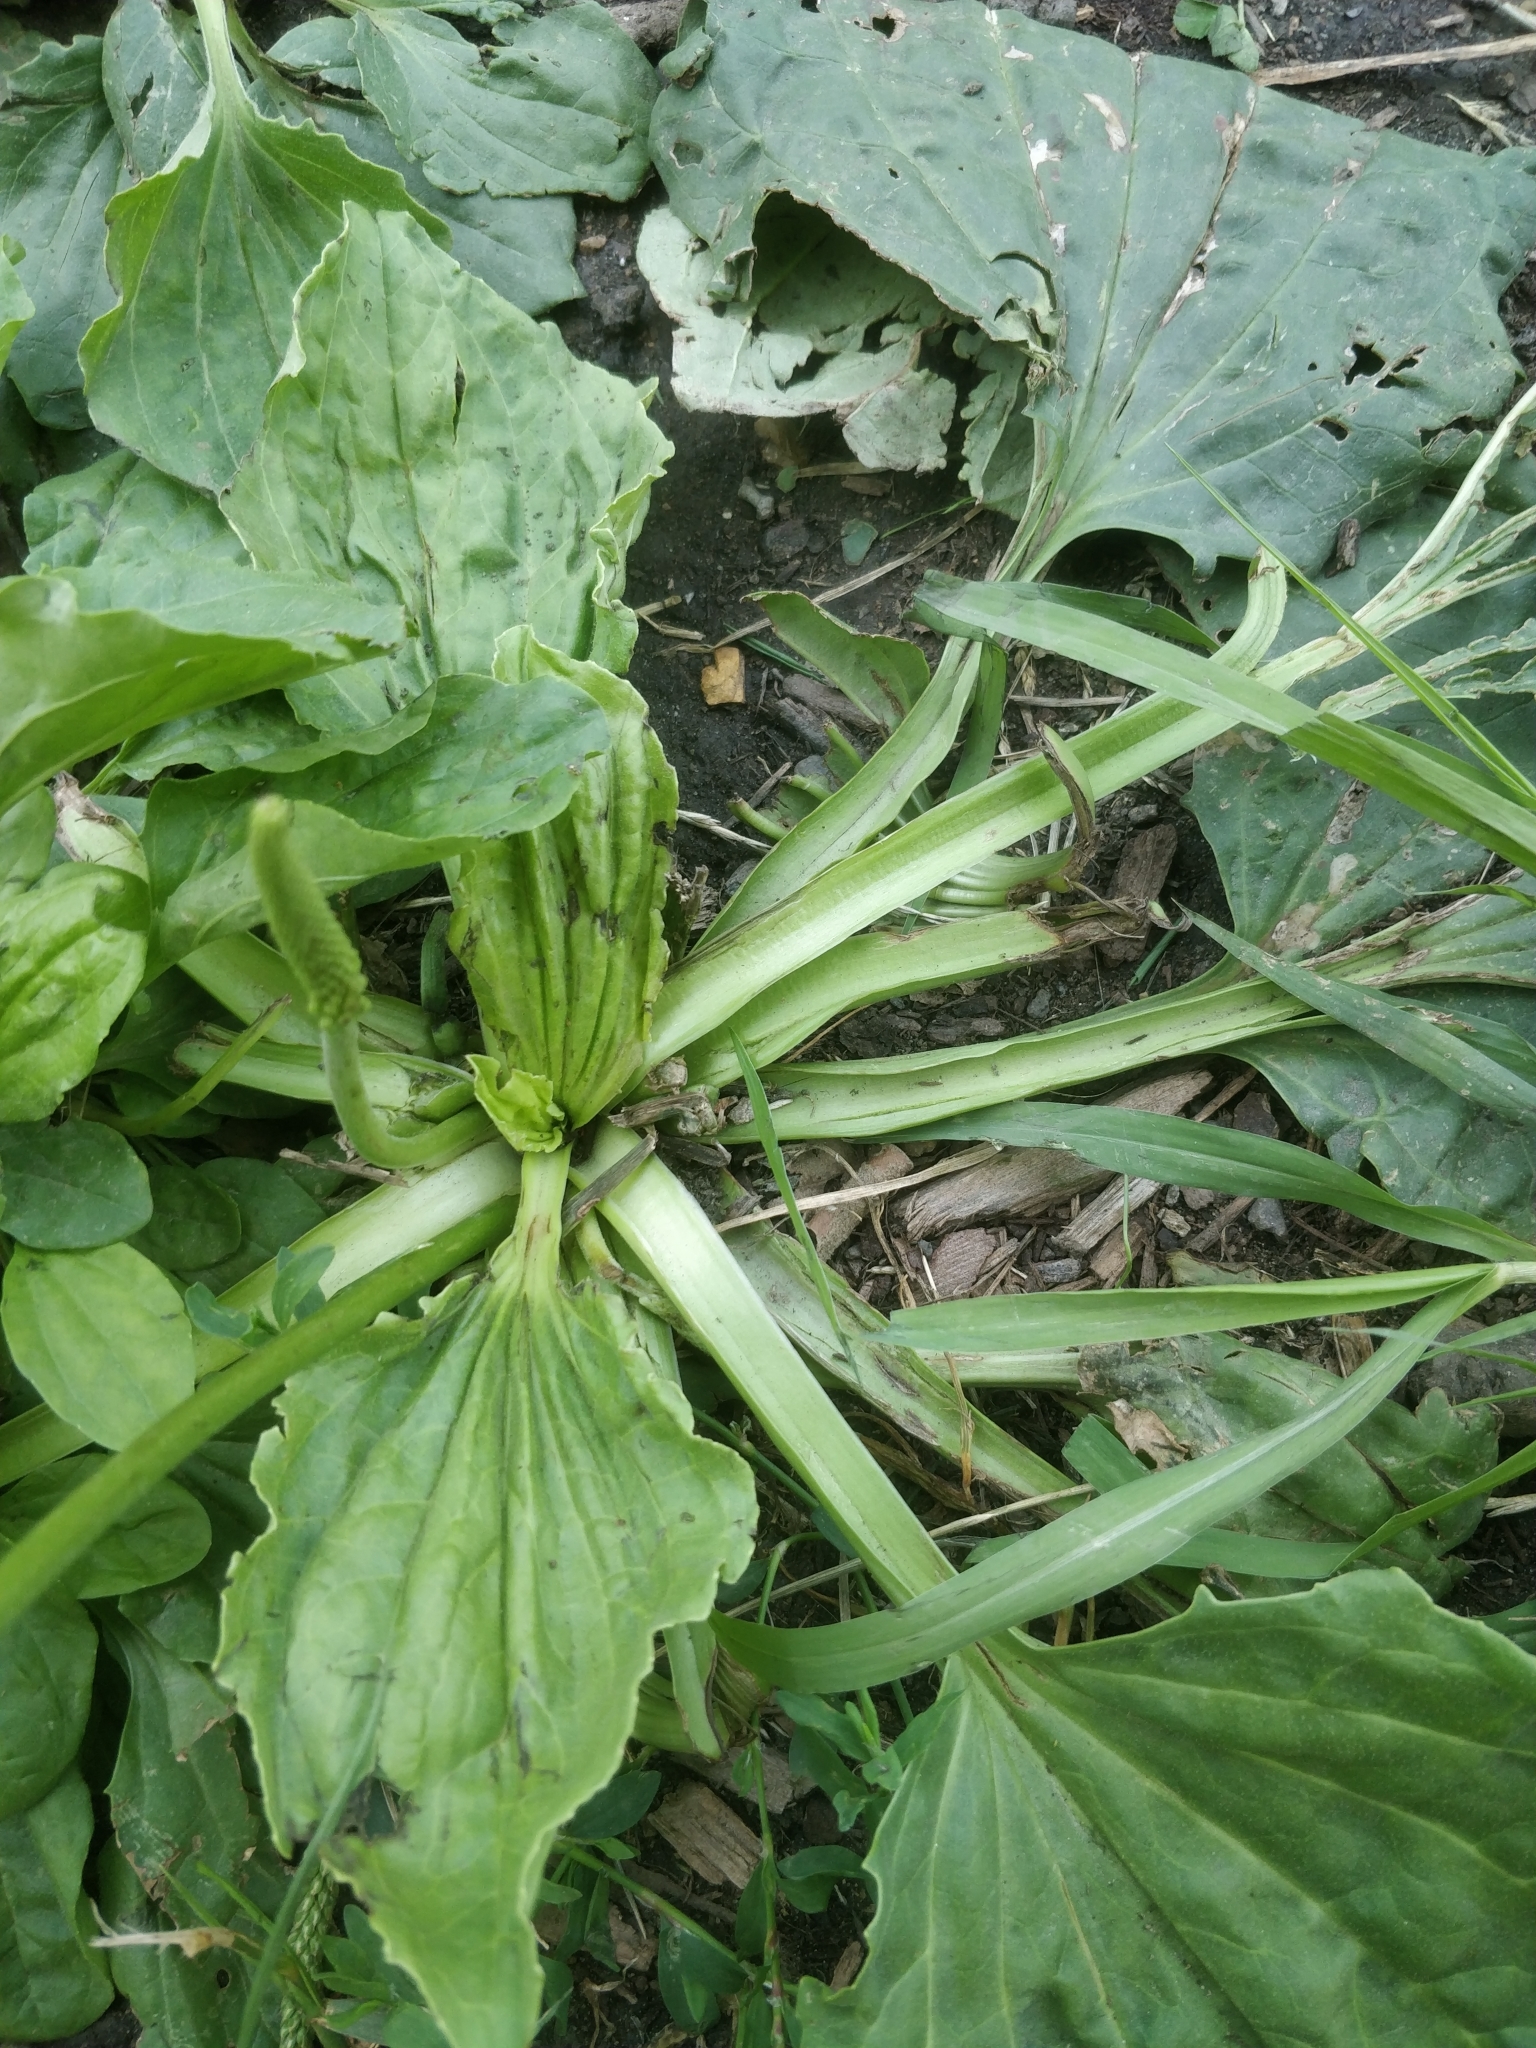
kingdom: Plantae
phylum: Tracheophyta
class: Magnoliopsida
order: Lamiales
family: Plantaginaceae
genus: Plantago
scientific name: Plantago major
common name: Common plantain
